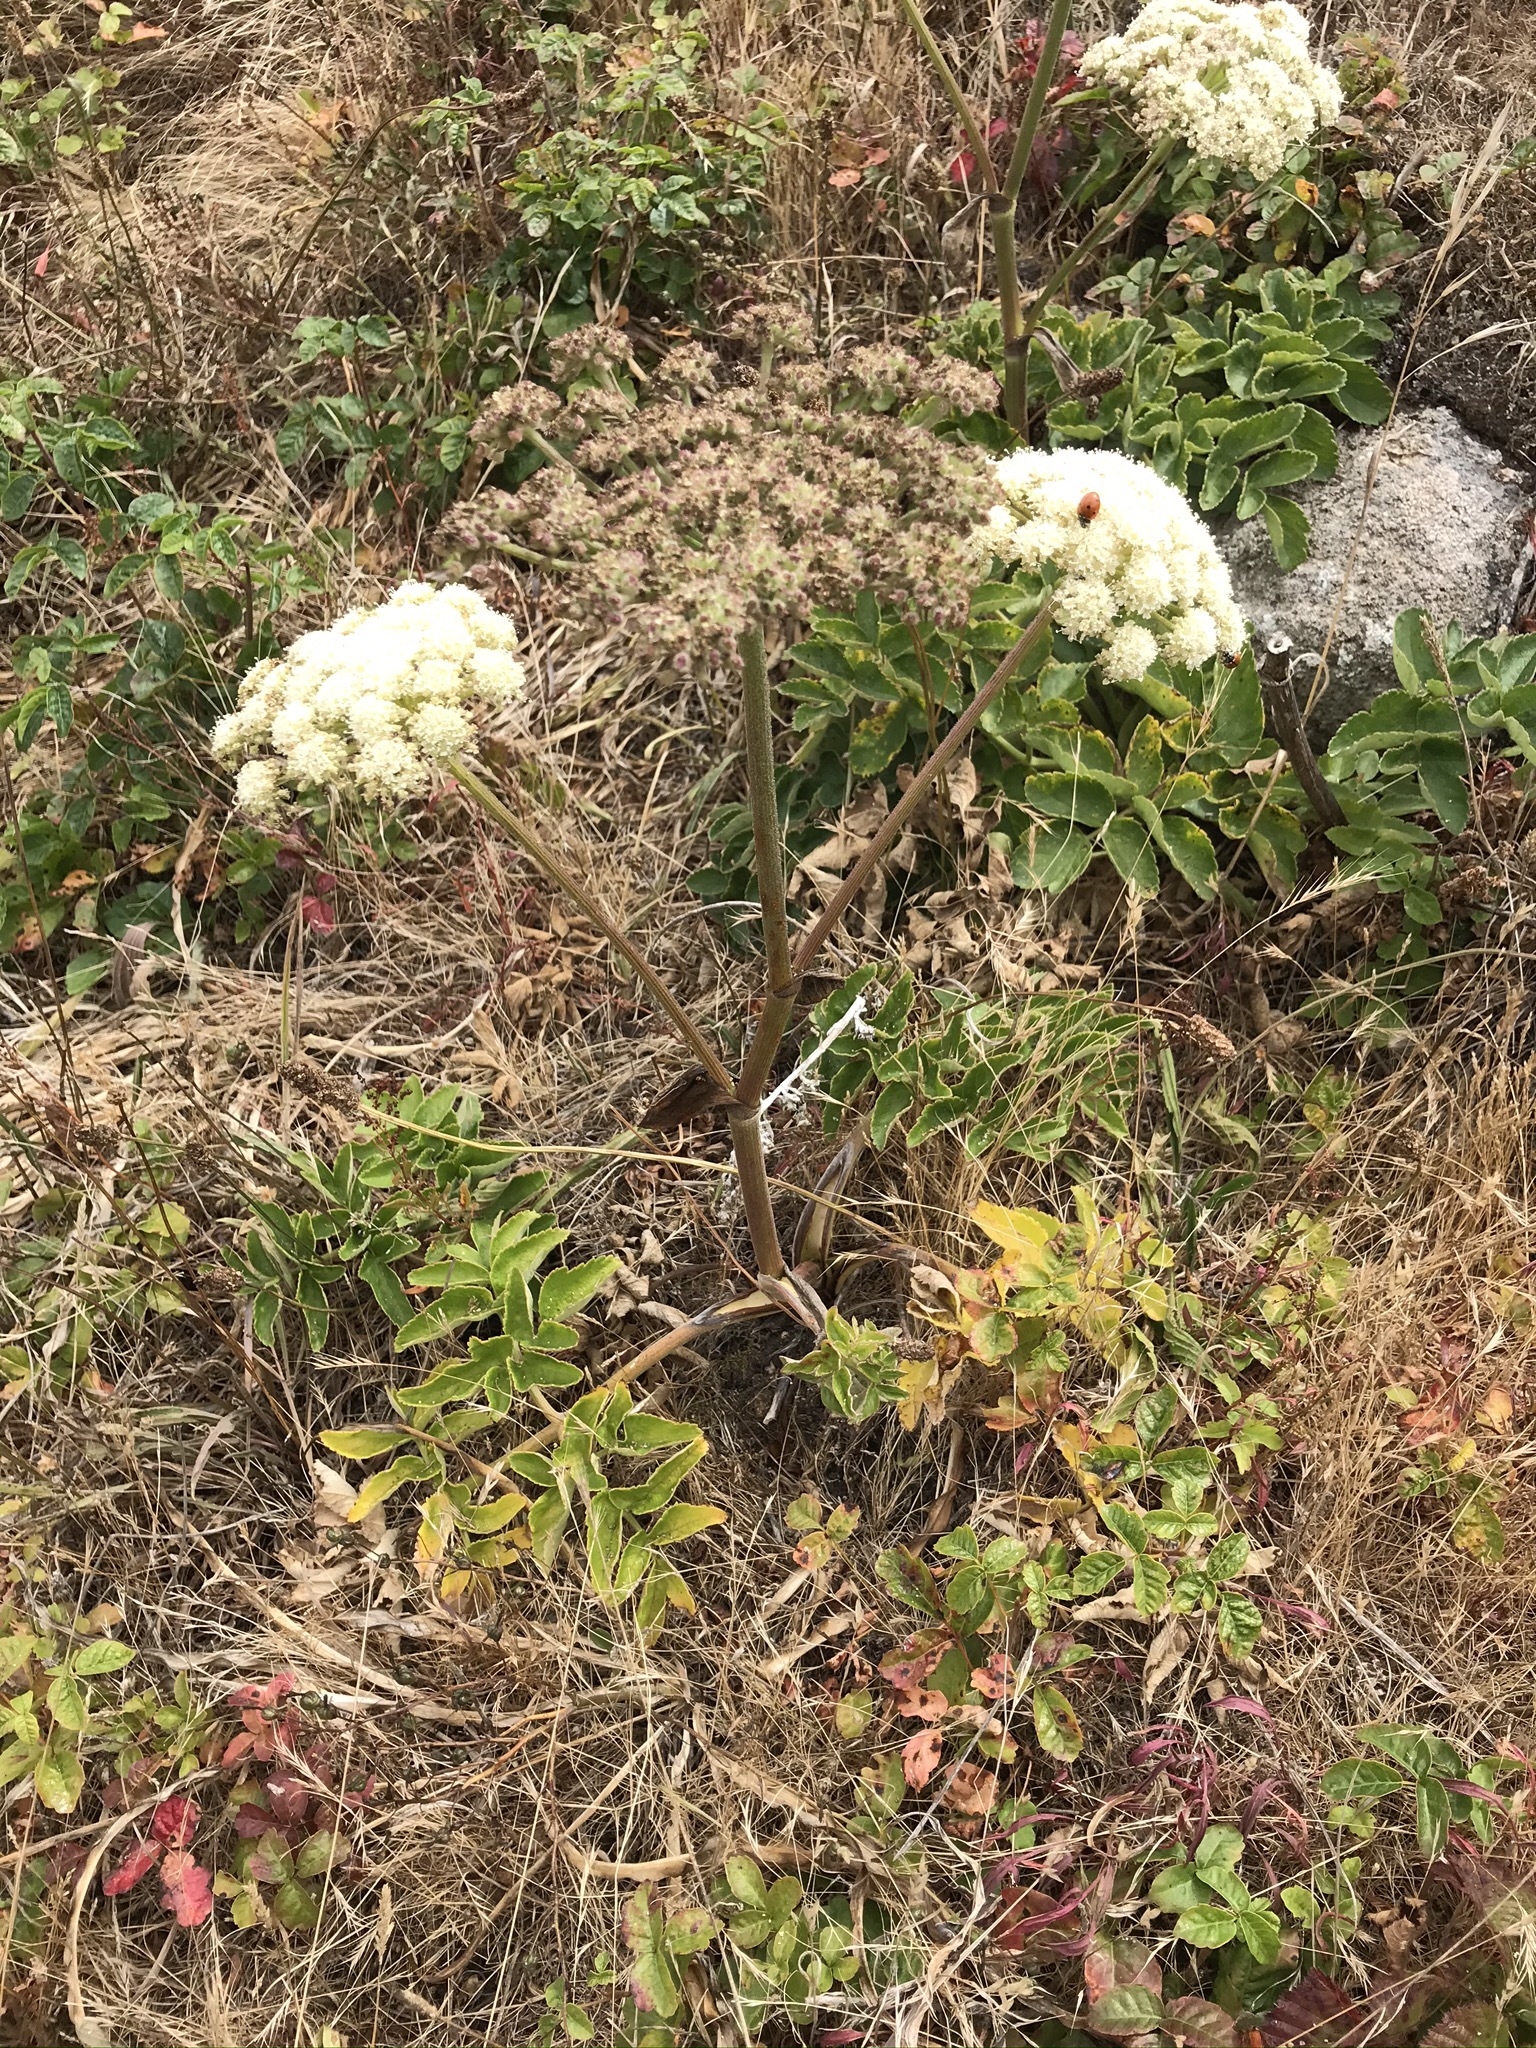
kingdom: Plantae
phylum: Tracheophyta
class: Magnoliopsida
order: Apiales
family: Apiaceae
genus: Angelica
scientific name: Angelica hendersonii
